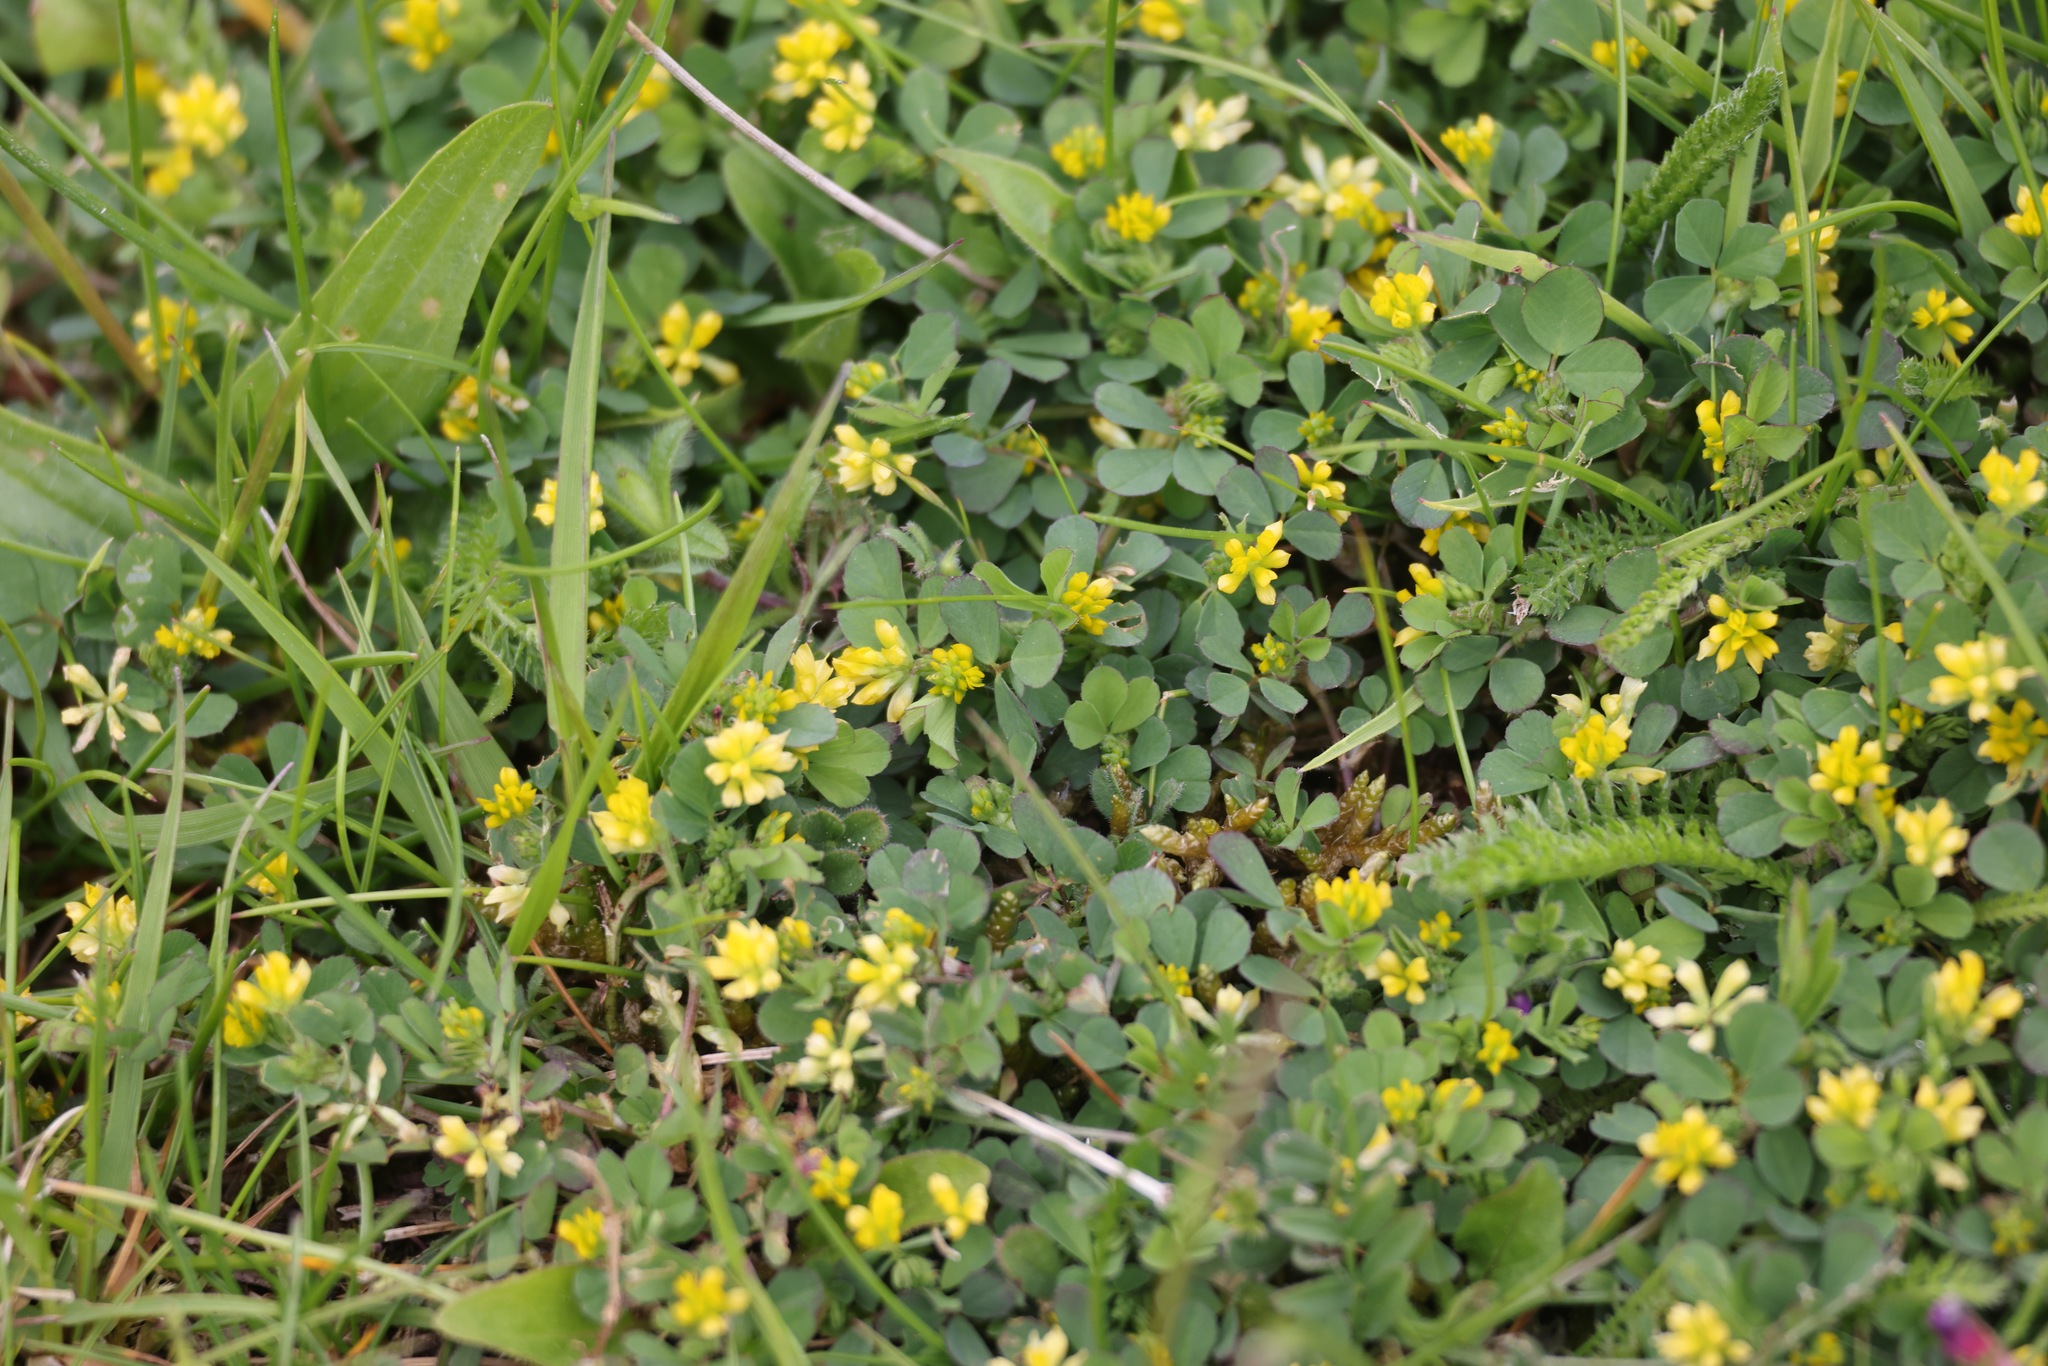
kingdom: Plantae
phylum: Tracheophyta
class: Magnoliopsida
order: Fabales
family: Fabaceae
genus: Trifolium
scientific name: Trifolium dubium
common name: Suckling clover
